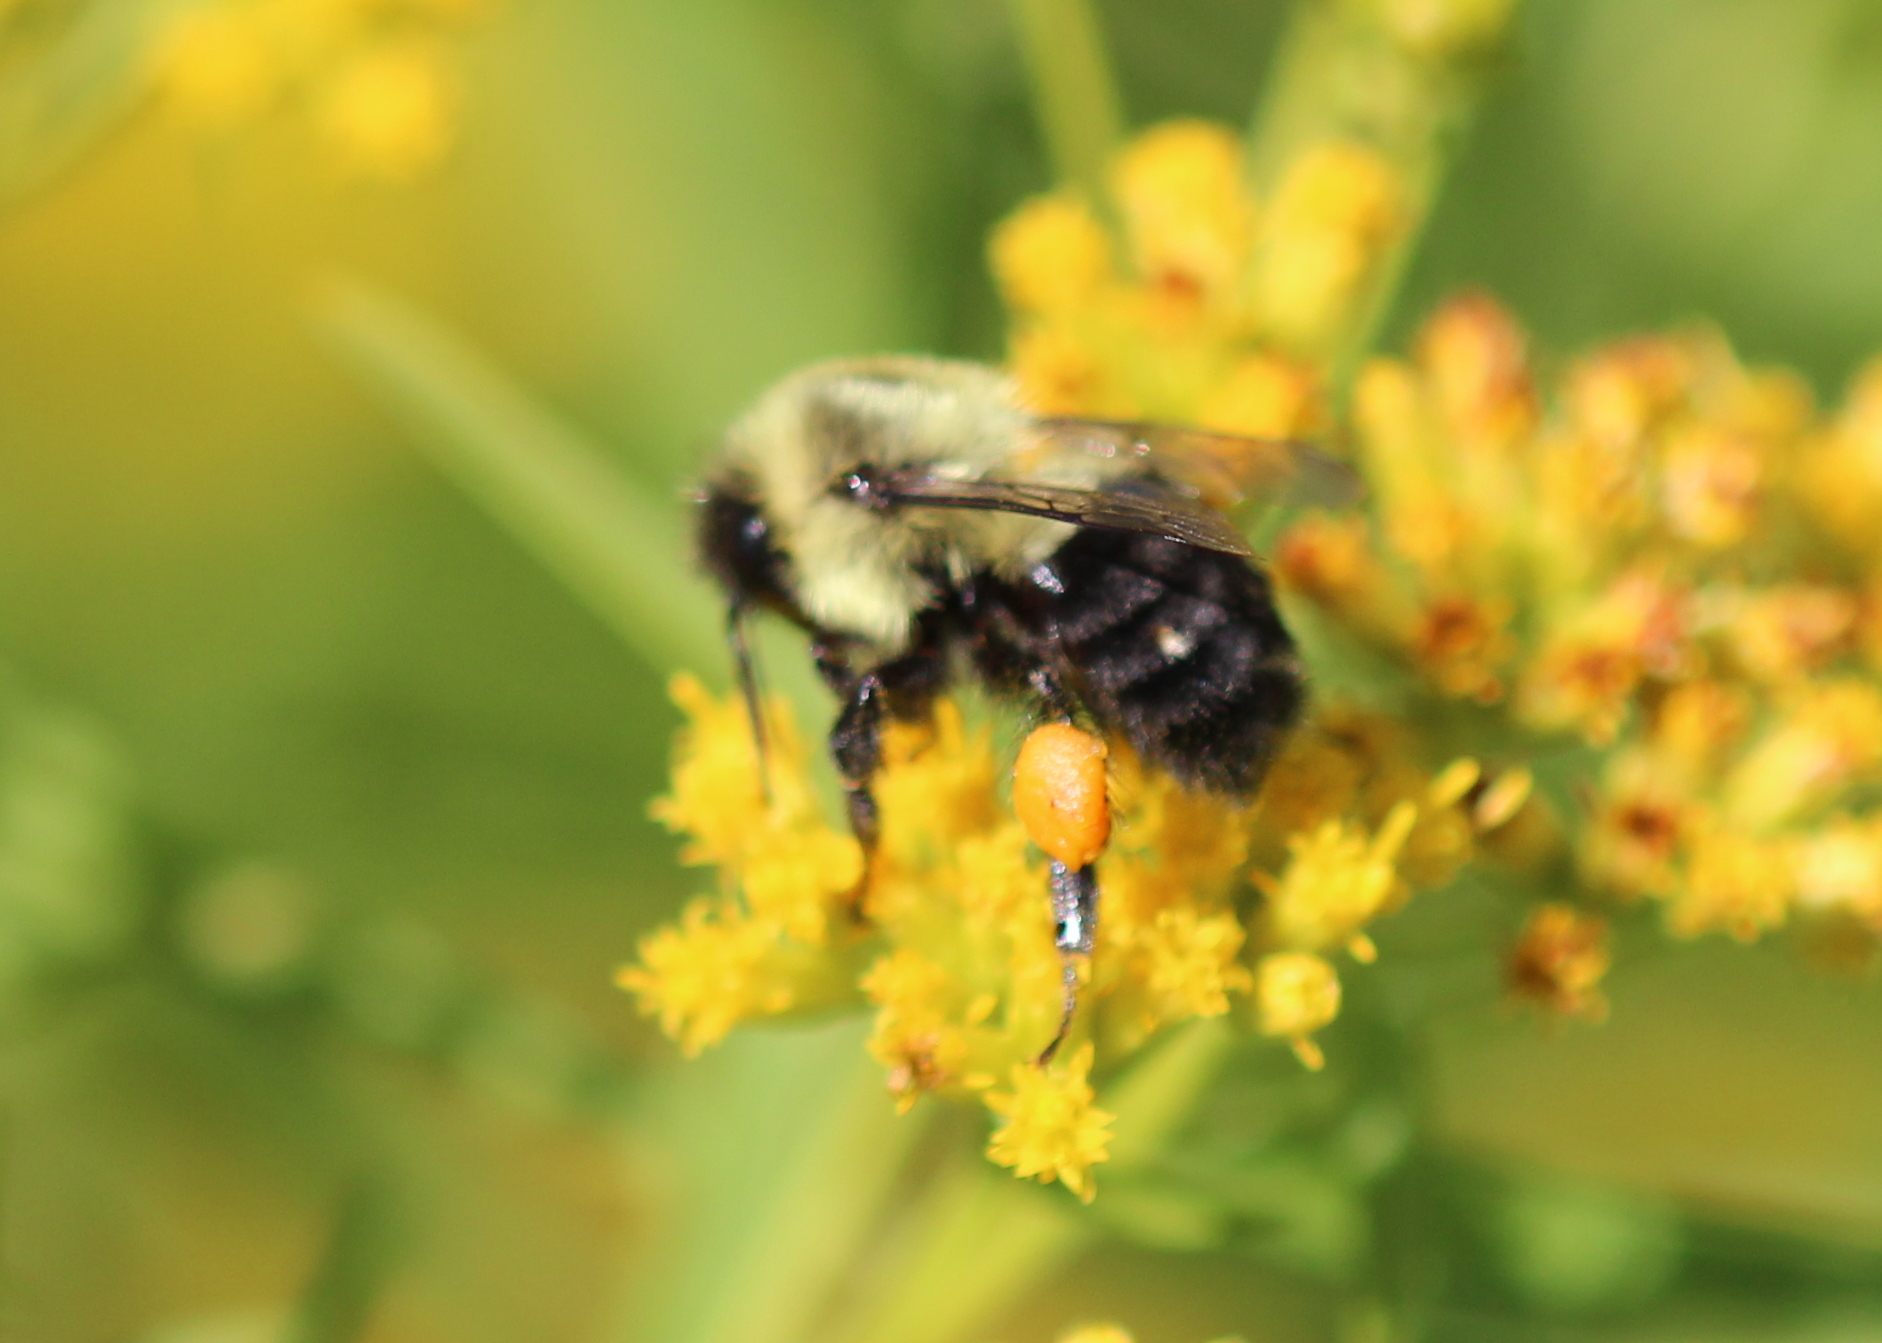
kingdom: Animalia
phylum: Arthropoda
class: Insecta
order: Hymenoptera
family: Apidae
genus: Bombus
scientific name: Bombus impatiens
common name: Common eastern bumble bee
